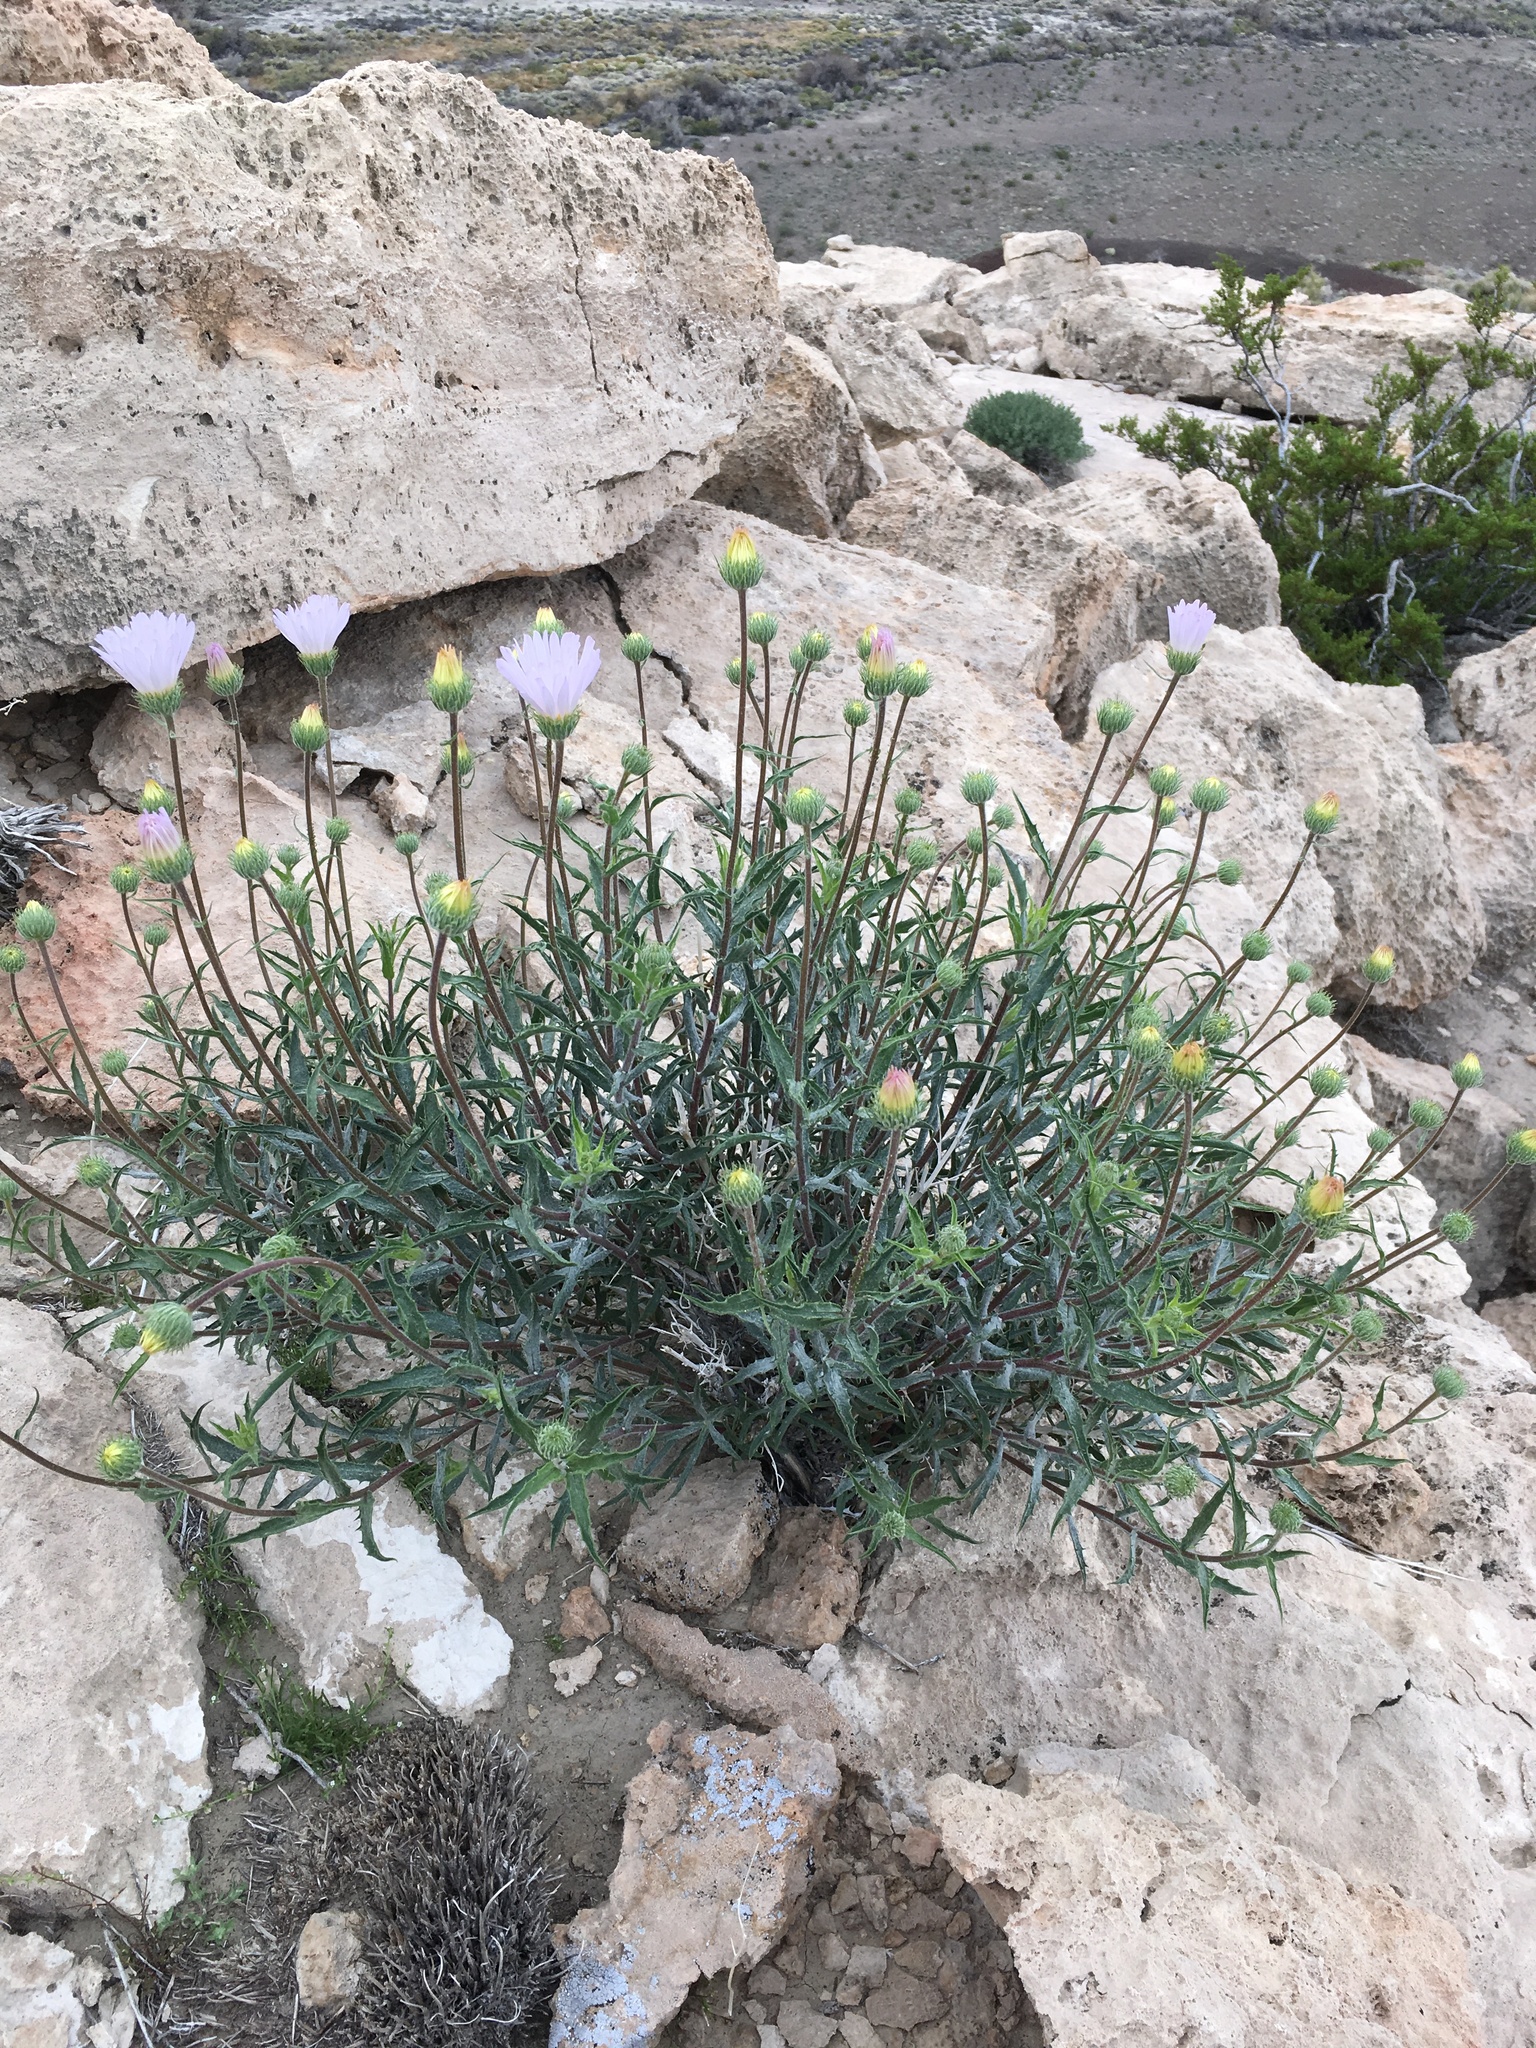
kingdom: Plantae
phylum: Tracheophyta
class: Magnoliopsida
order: Asterales
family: Asteraceae
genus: Xylorhiza
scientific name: Xylorhiza tortifolia
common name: Hurt-leaf woody-aster
